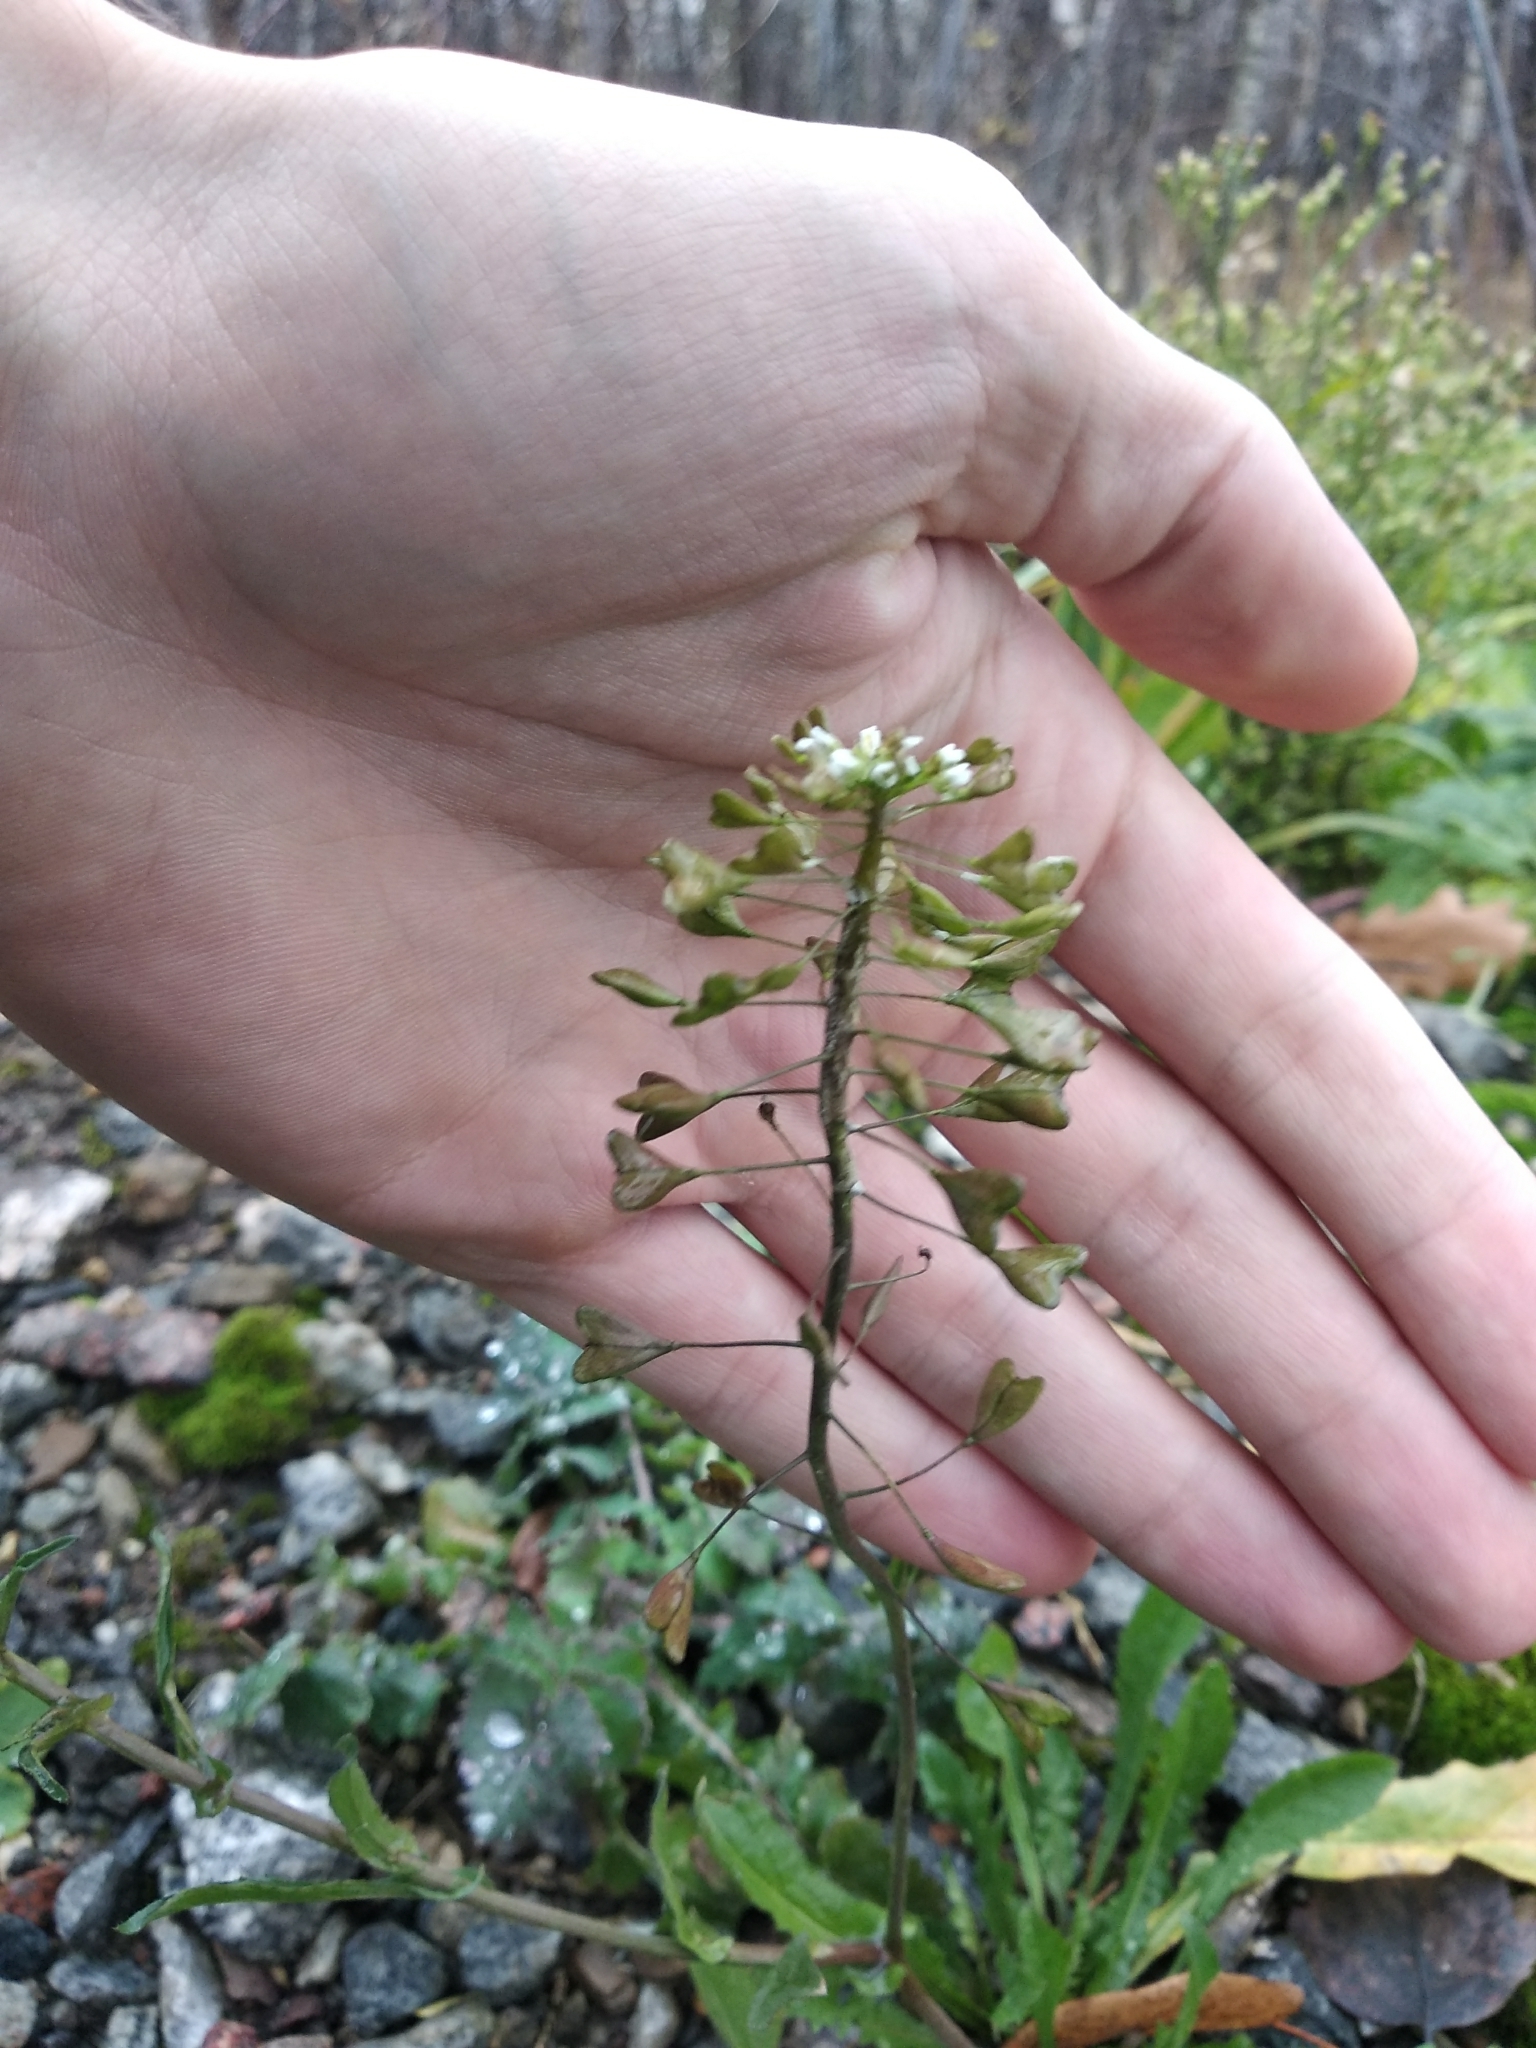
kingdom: Plantae
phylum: Tracheophyta
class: Magnoliopsida
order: Brassicales
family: Brassicaceae
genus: Capsella
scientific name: Capsella bursa-pastoris
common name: Shepherd's purse
